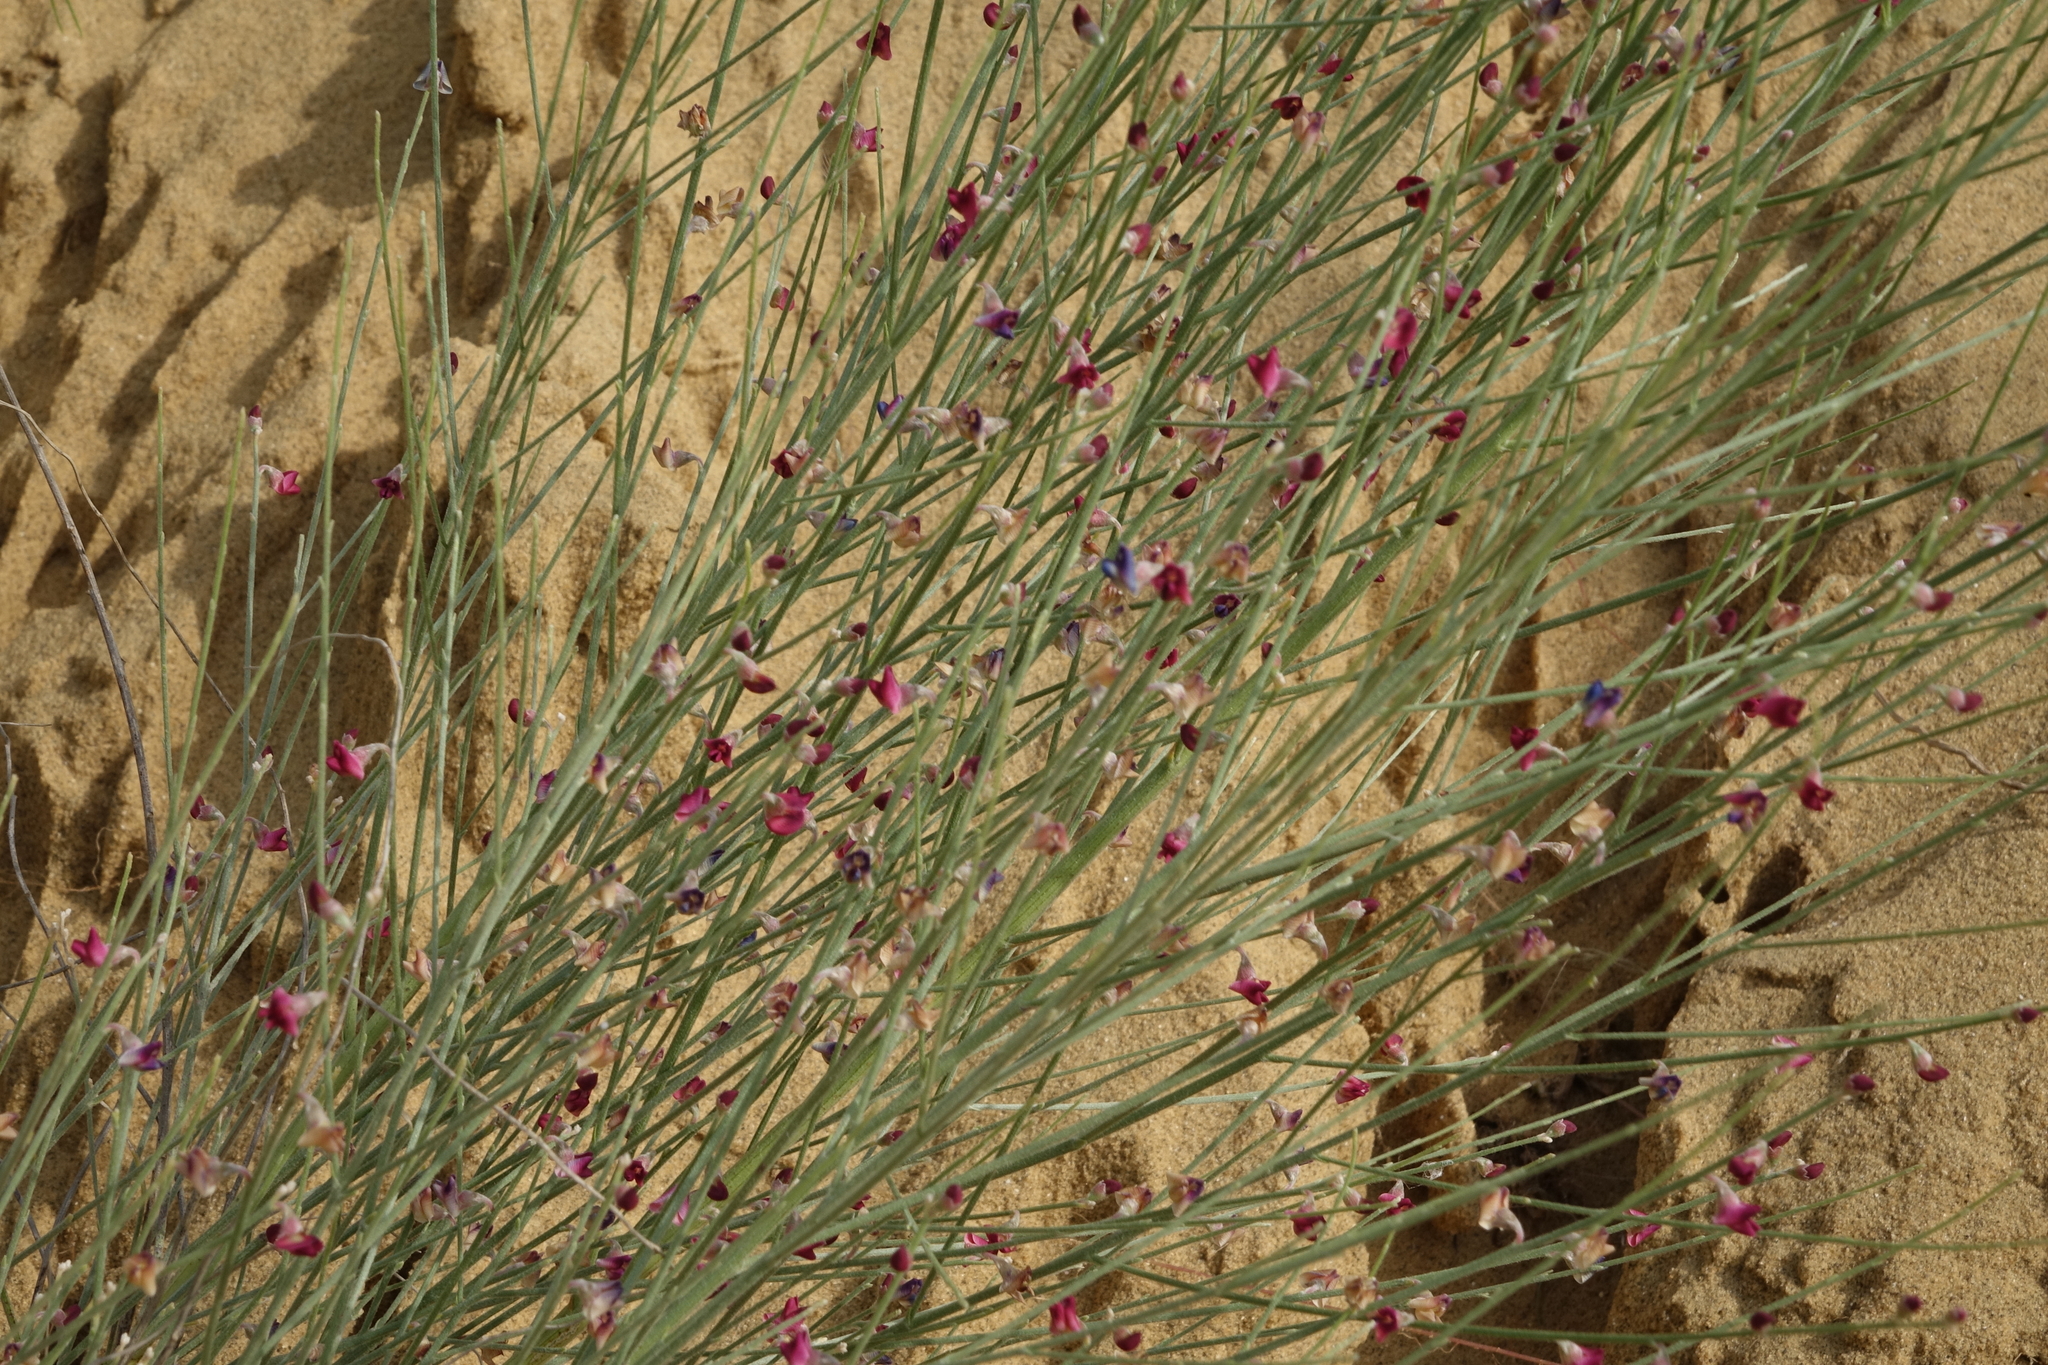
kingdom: Plantae
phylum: Tracheophyta
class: Magnoliopsida
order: Fabales
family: Fabaceae
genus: Eremosparton
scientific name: Eremosparton aphyllum
